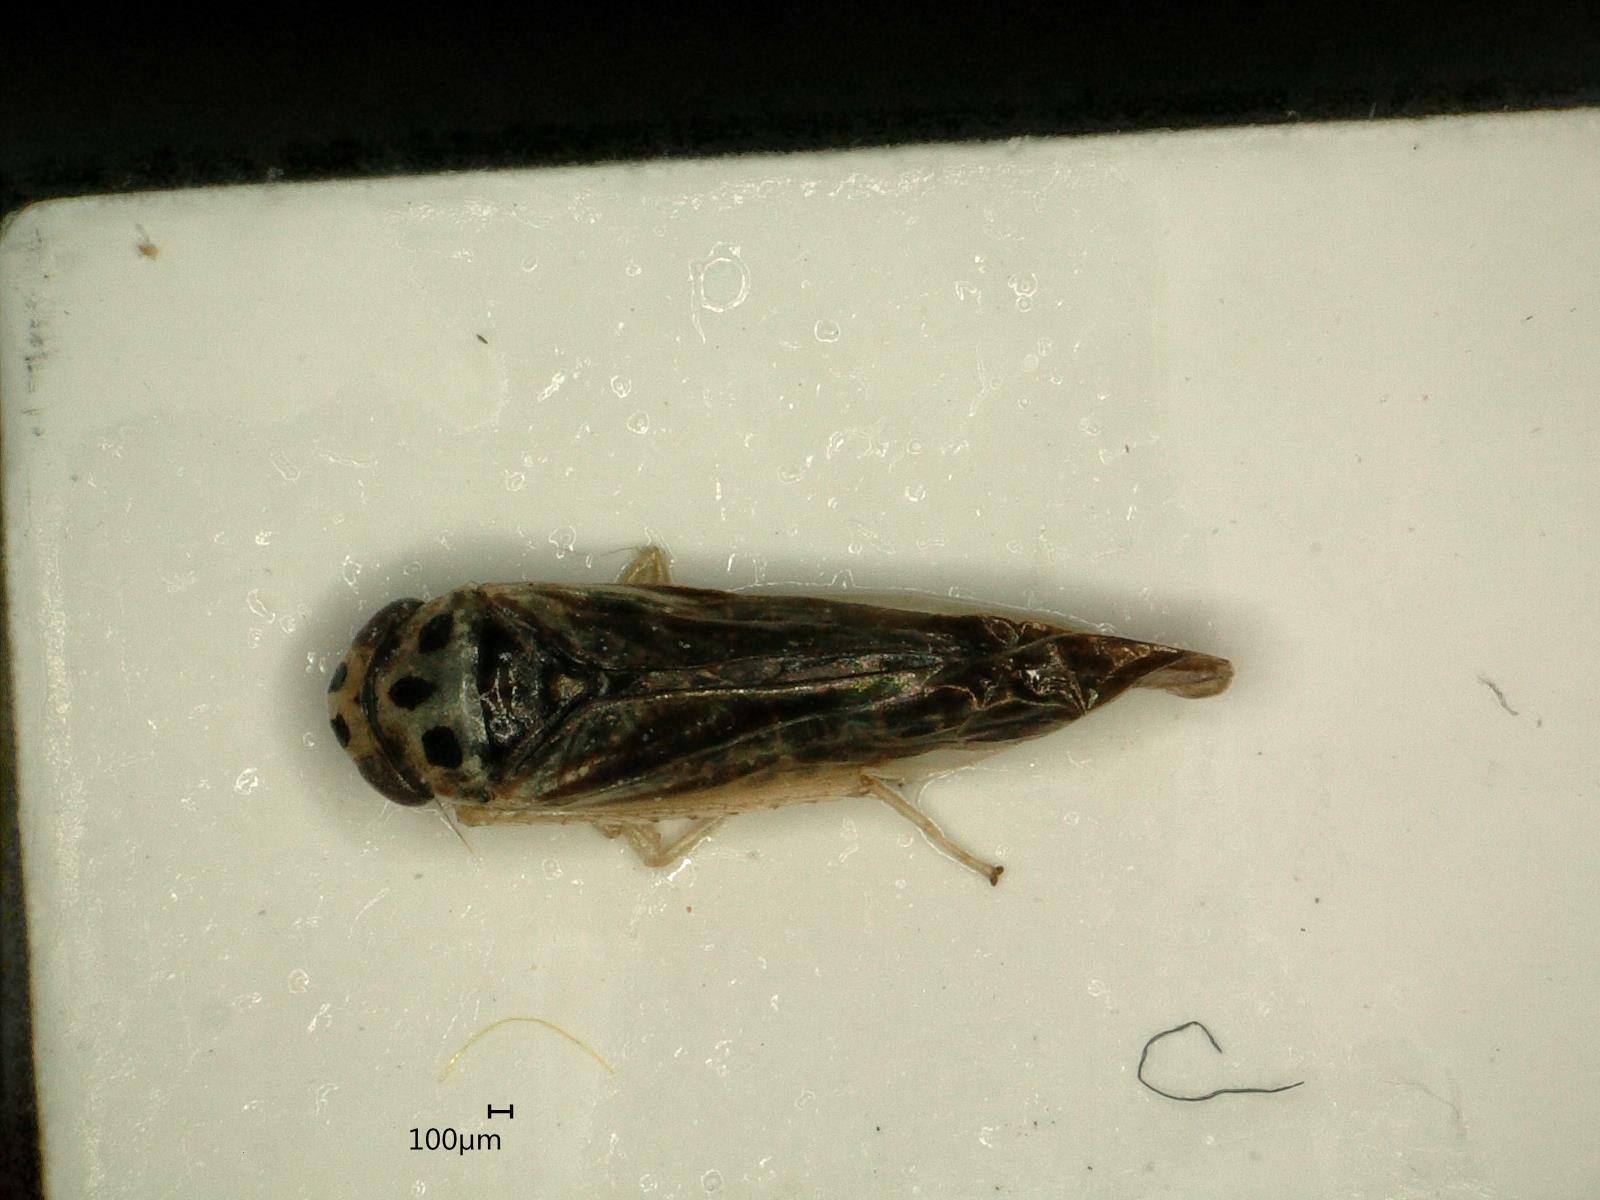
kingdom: Animalia
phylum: Arthropoda
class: Insecta
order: Hemiptera
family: Cicadellidae
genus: Eupterycyba
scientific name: Eupterycyba jucunda
